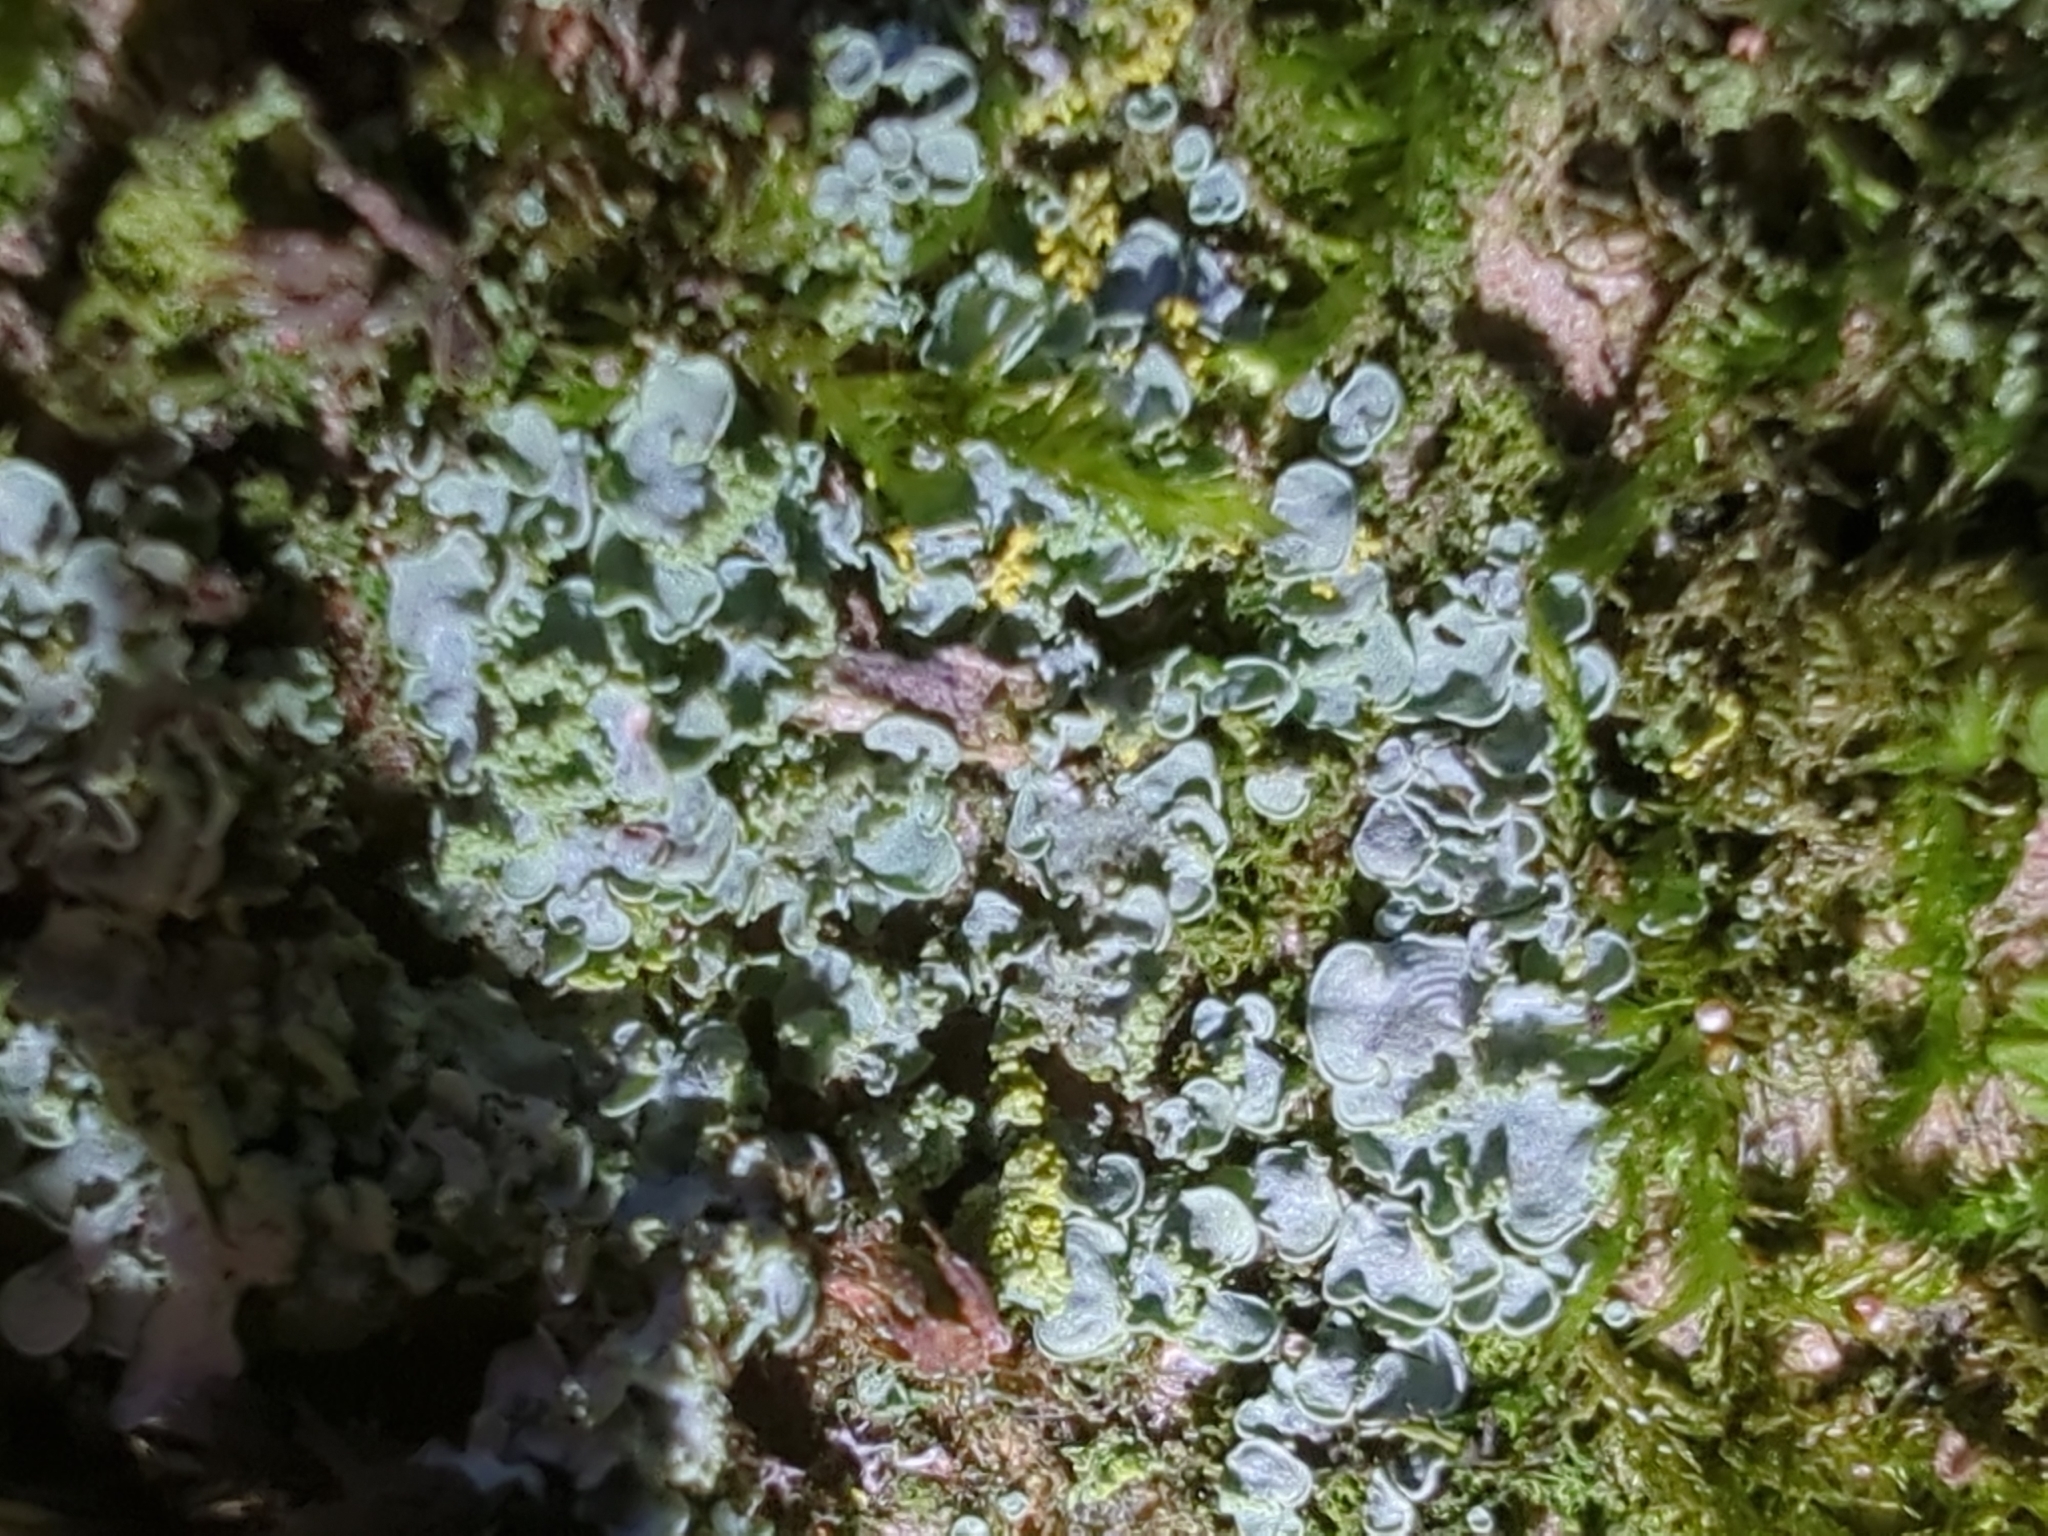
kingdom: Fungi
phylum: Ascomycota
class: Eurotiomycetes
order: Verrucariales
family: Verrucariaceae
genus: Normandina
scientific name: Normandina pulchella
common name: Elf ears lichen
